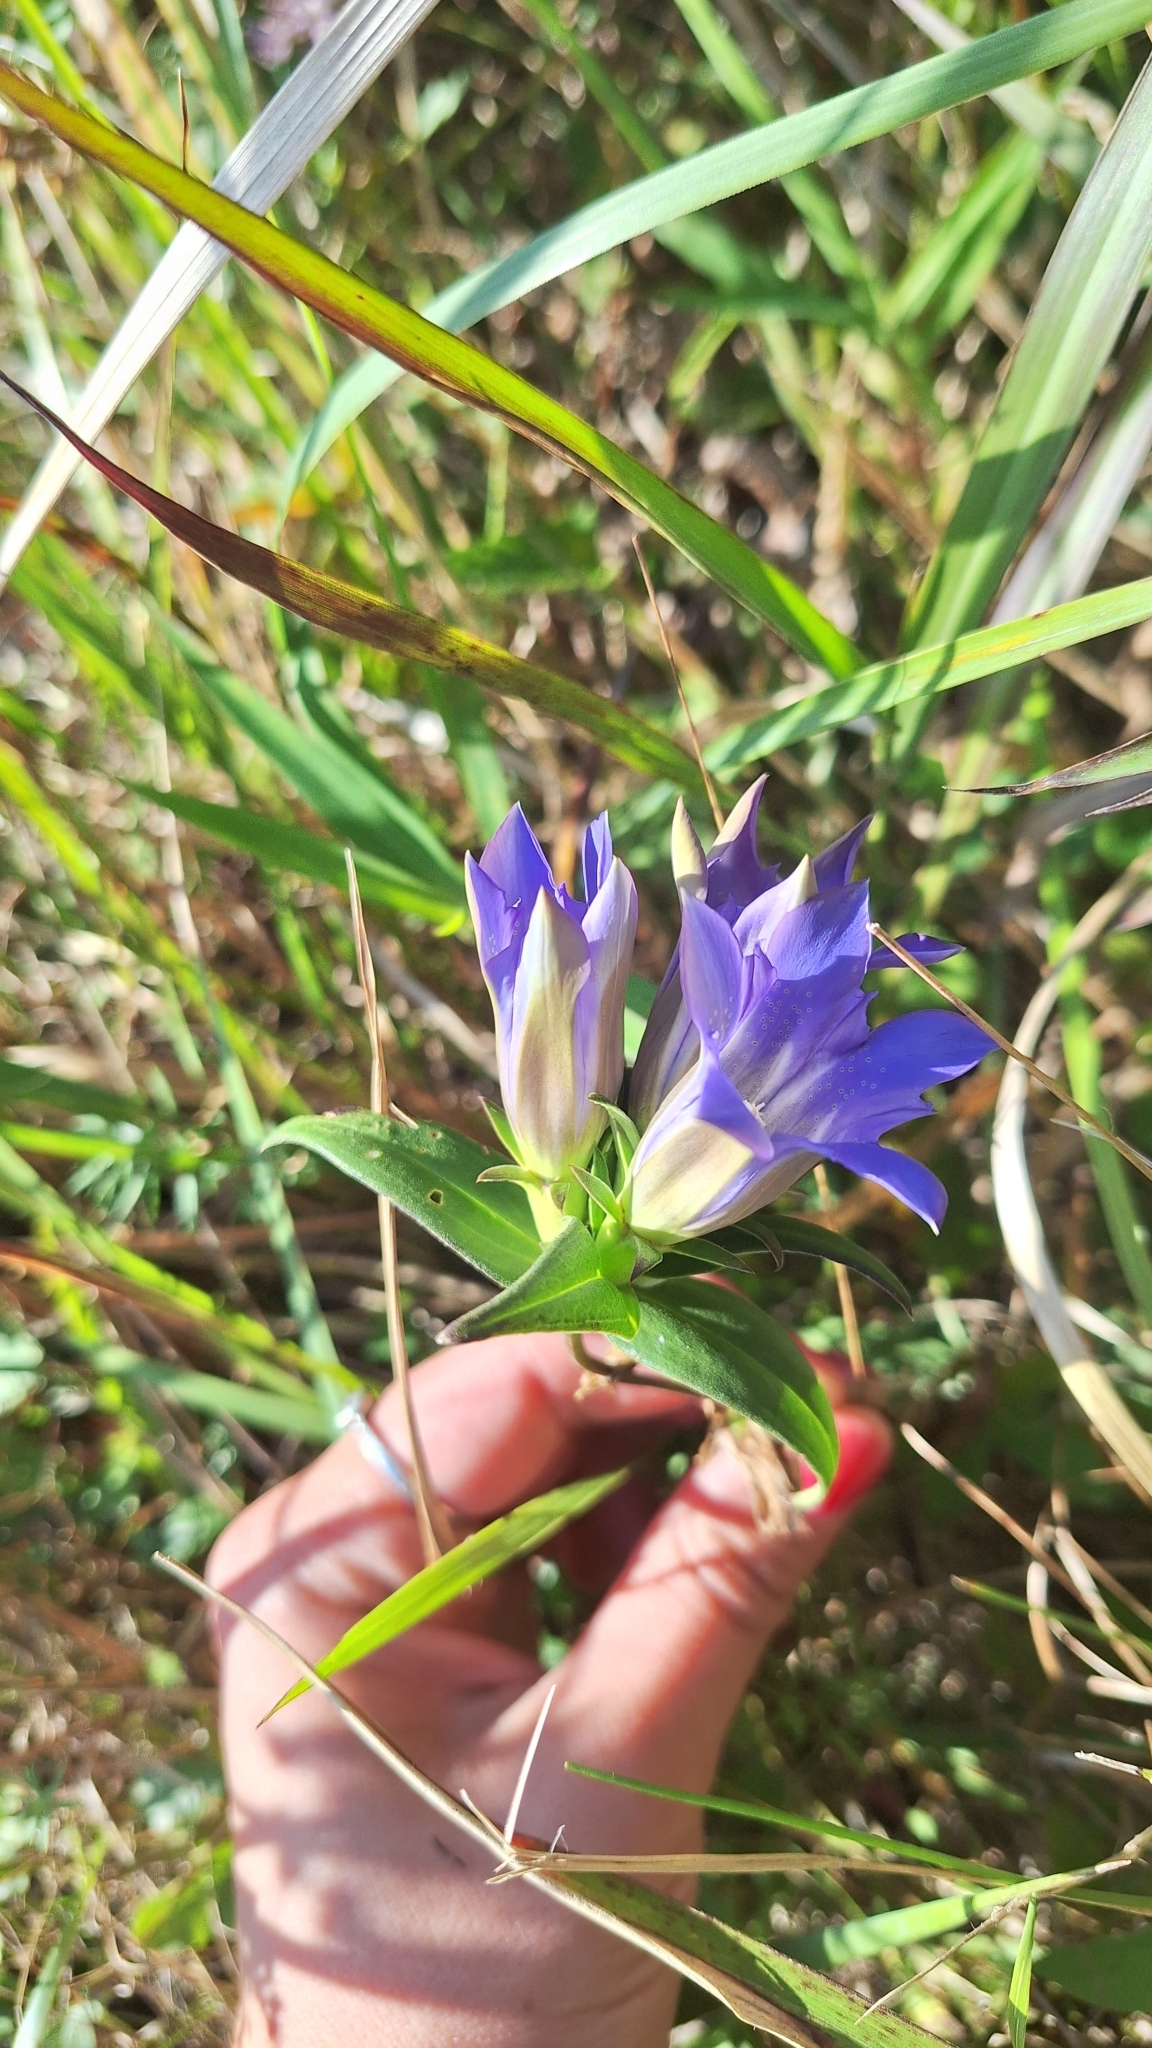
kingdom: Plantae
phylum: Tracheophyta
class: Magnoliopsida
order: Gentianales
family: Gentianaceae
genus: Gentiana
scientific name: Gentiana scabra
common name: Scabrous gentian
